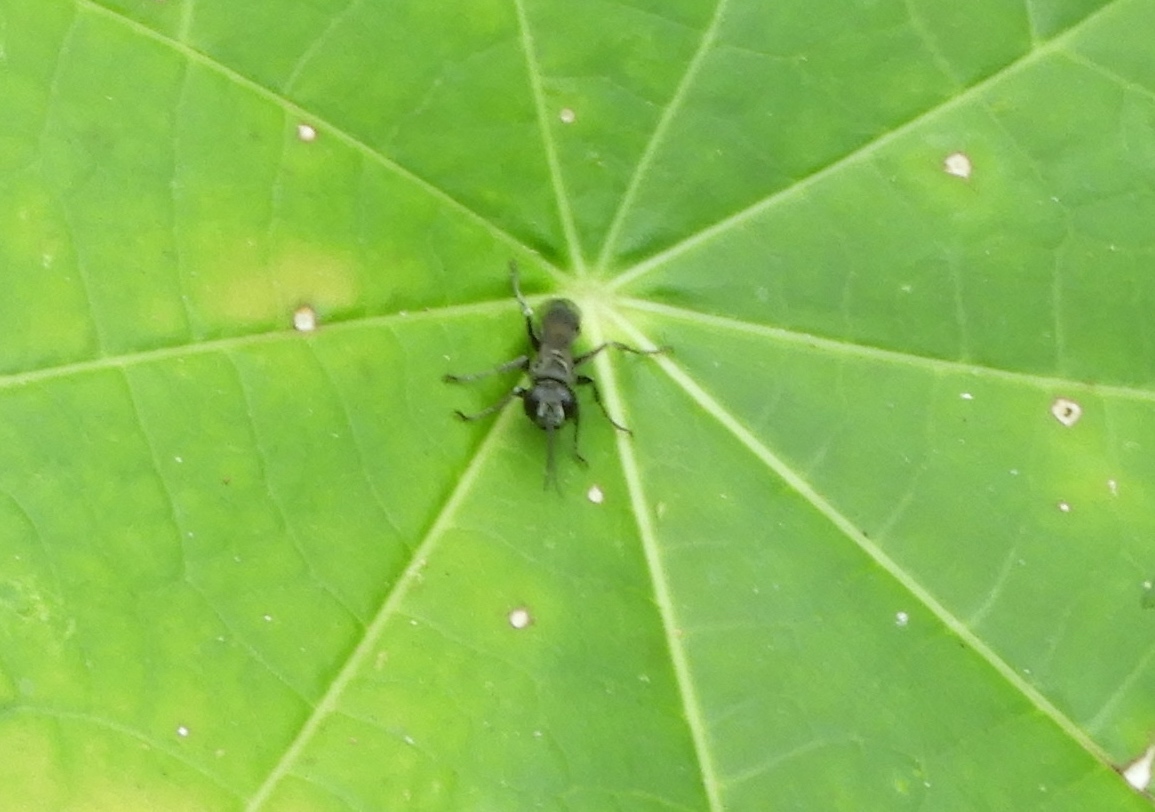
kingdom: Animalia
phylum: Arthropoda
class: Insecta
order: Hymenoptera
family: Crabronidae
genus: Liris
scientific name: Liris
